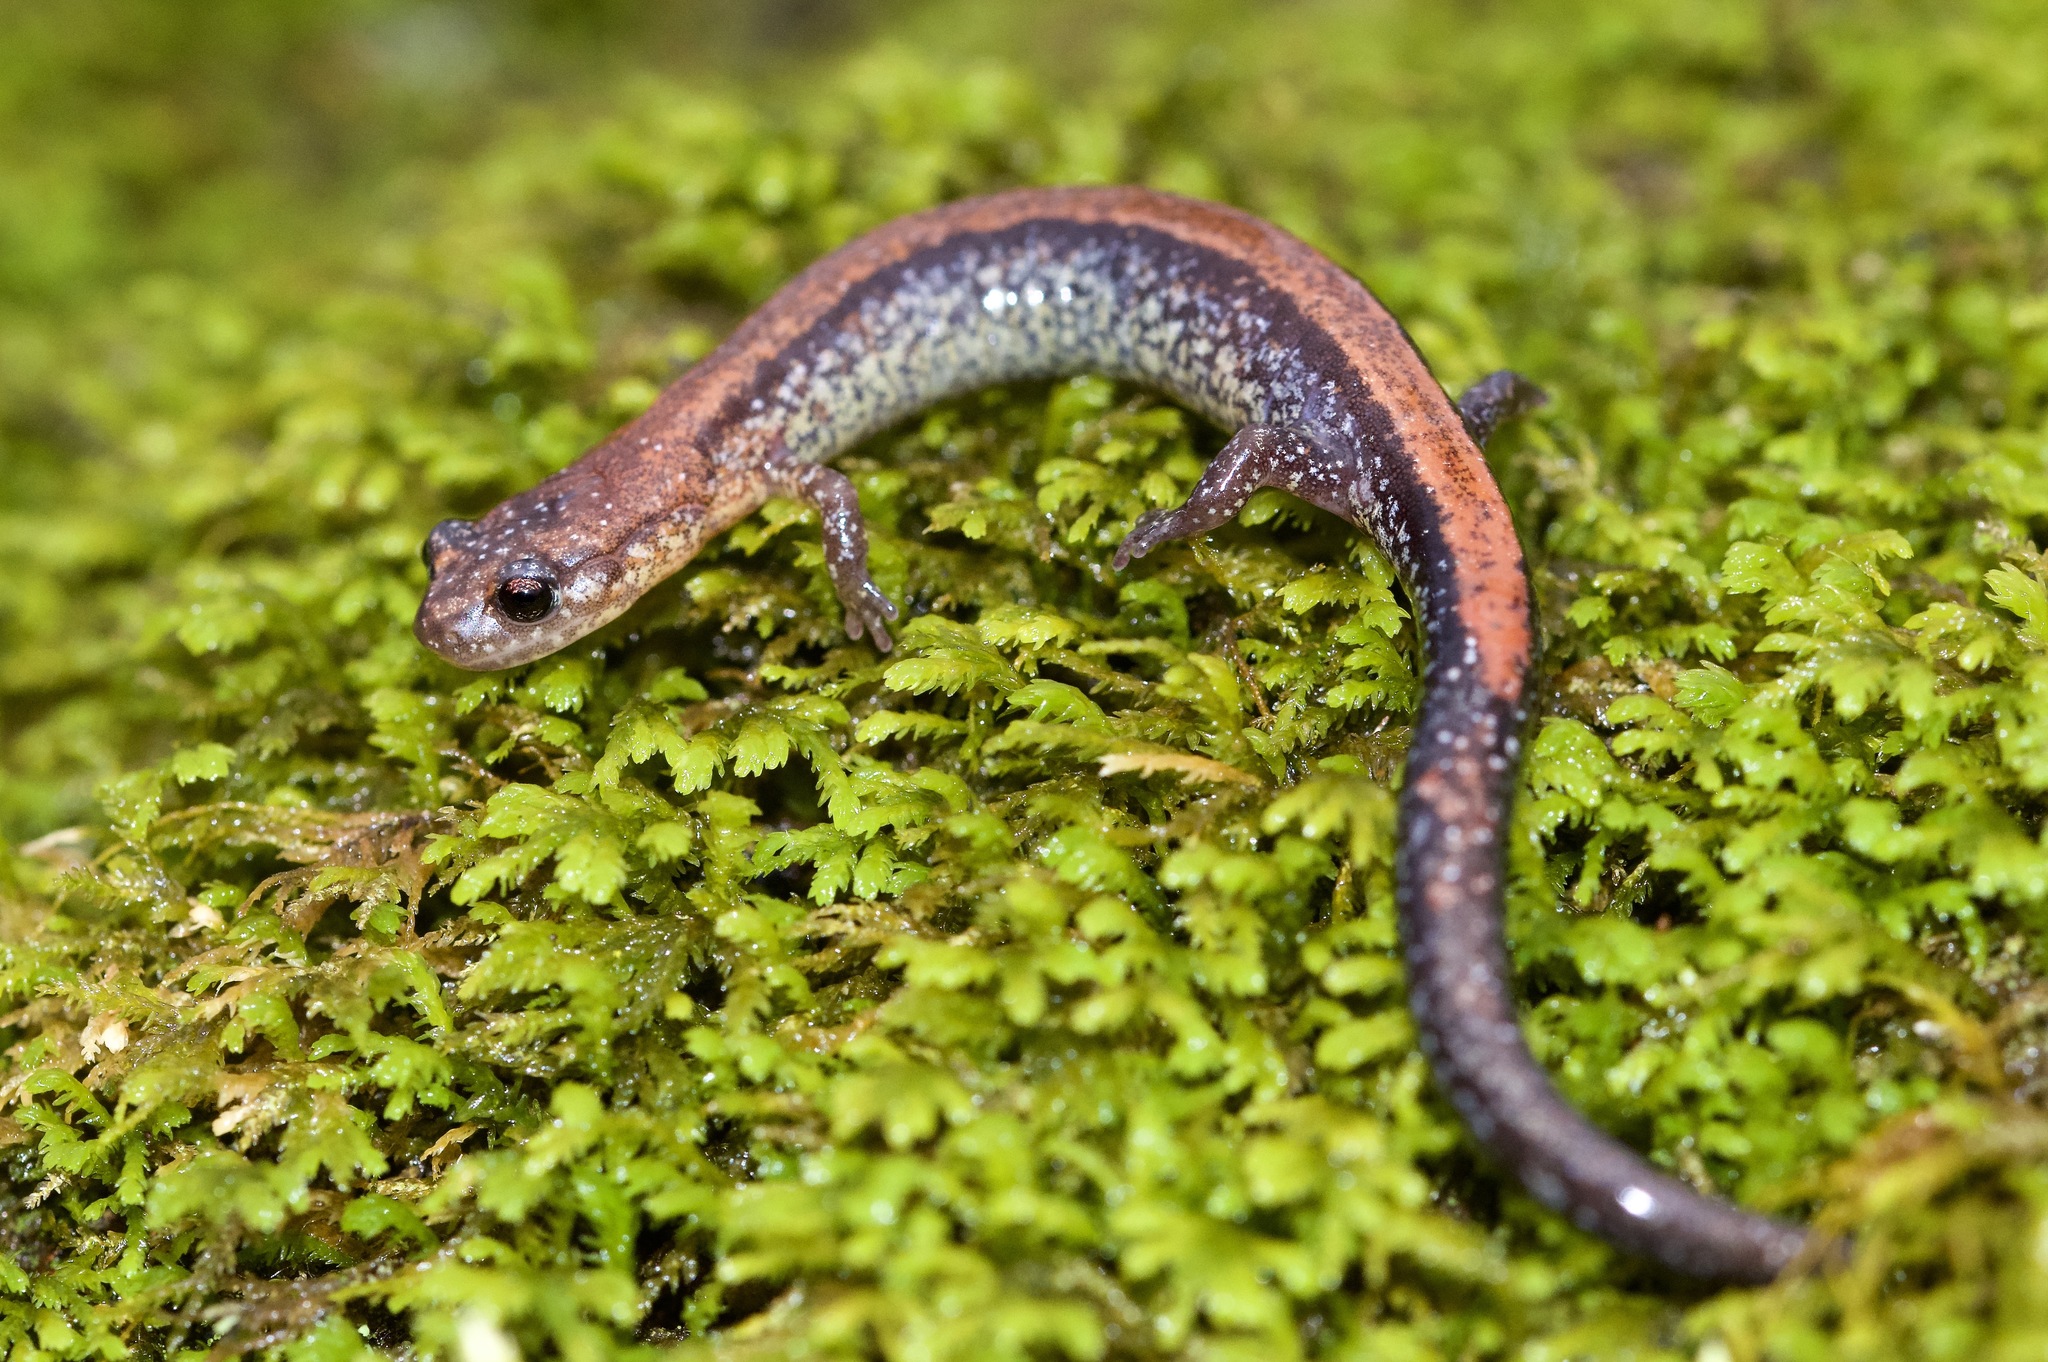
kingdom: Animalia
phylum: Chordata
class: Amphibia
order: Caudata
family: Plethodontidae
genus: Plethodon
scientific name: Plethodon cinereus
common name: Redback salamander
